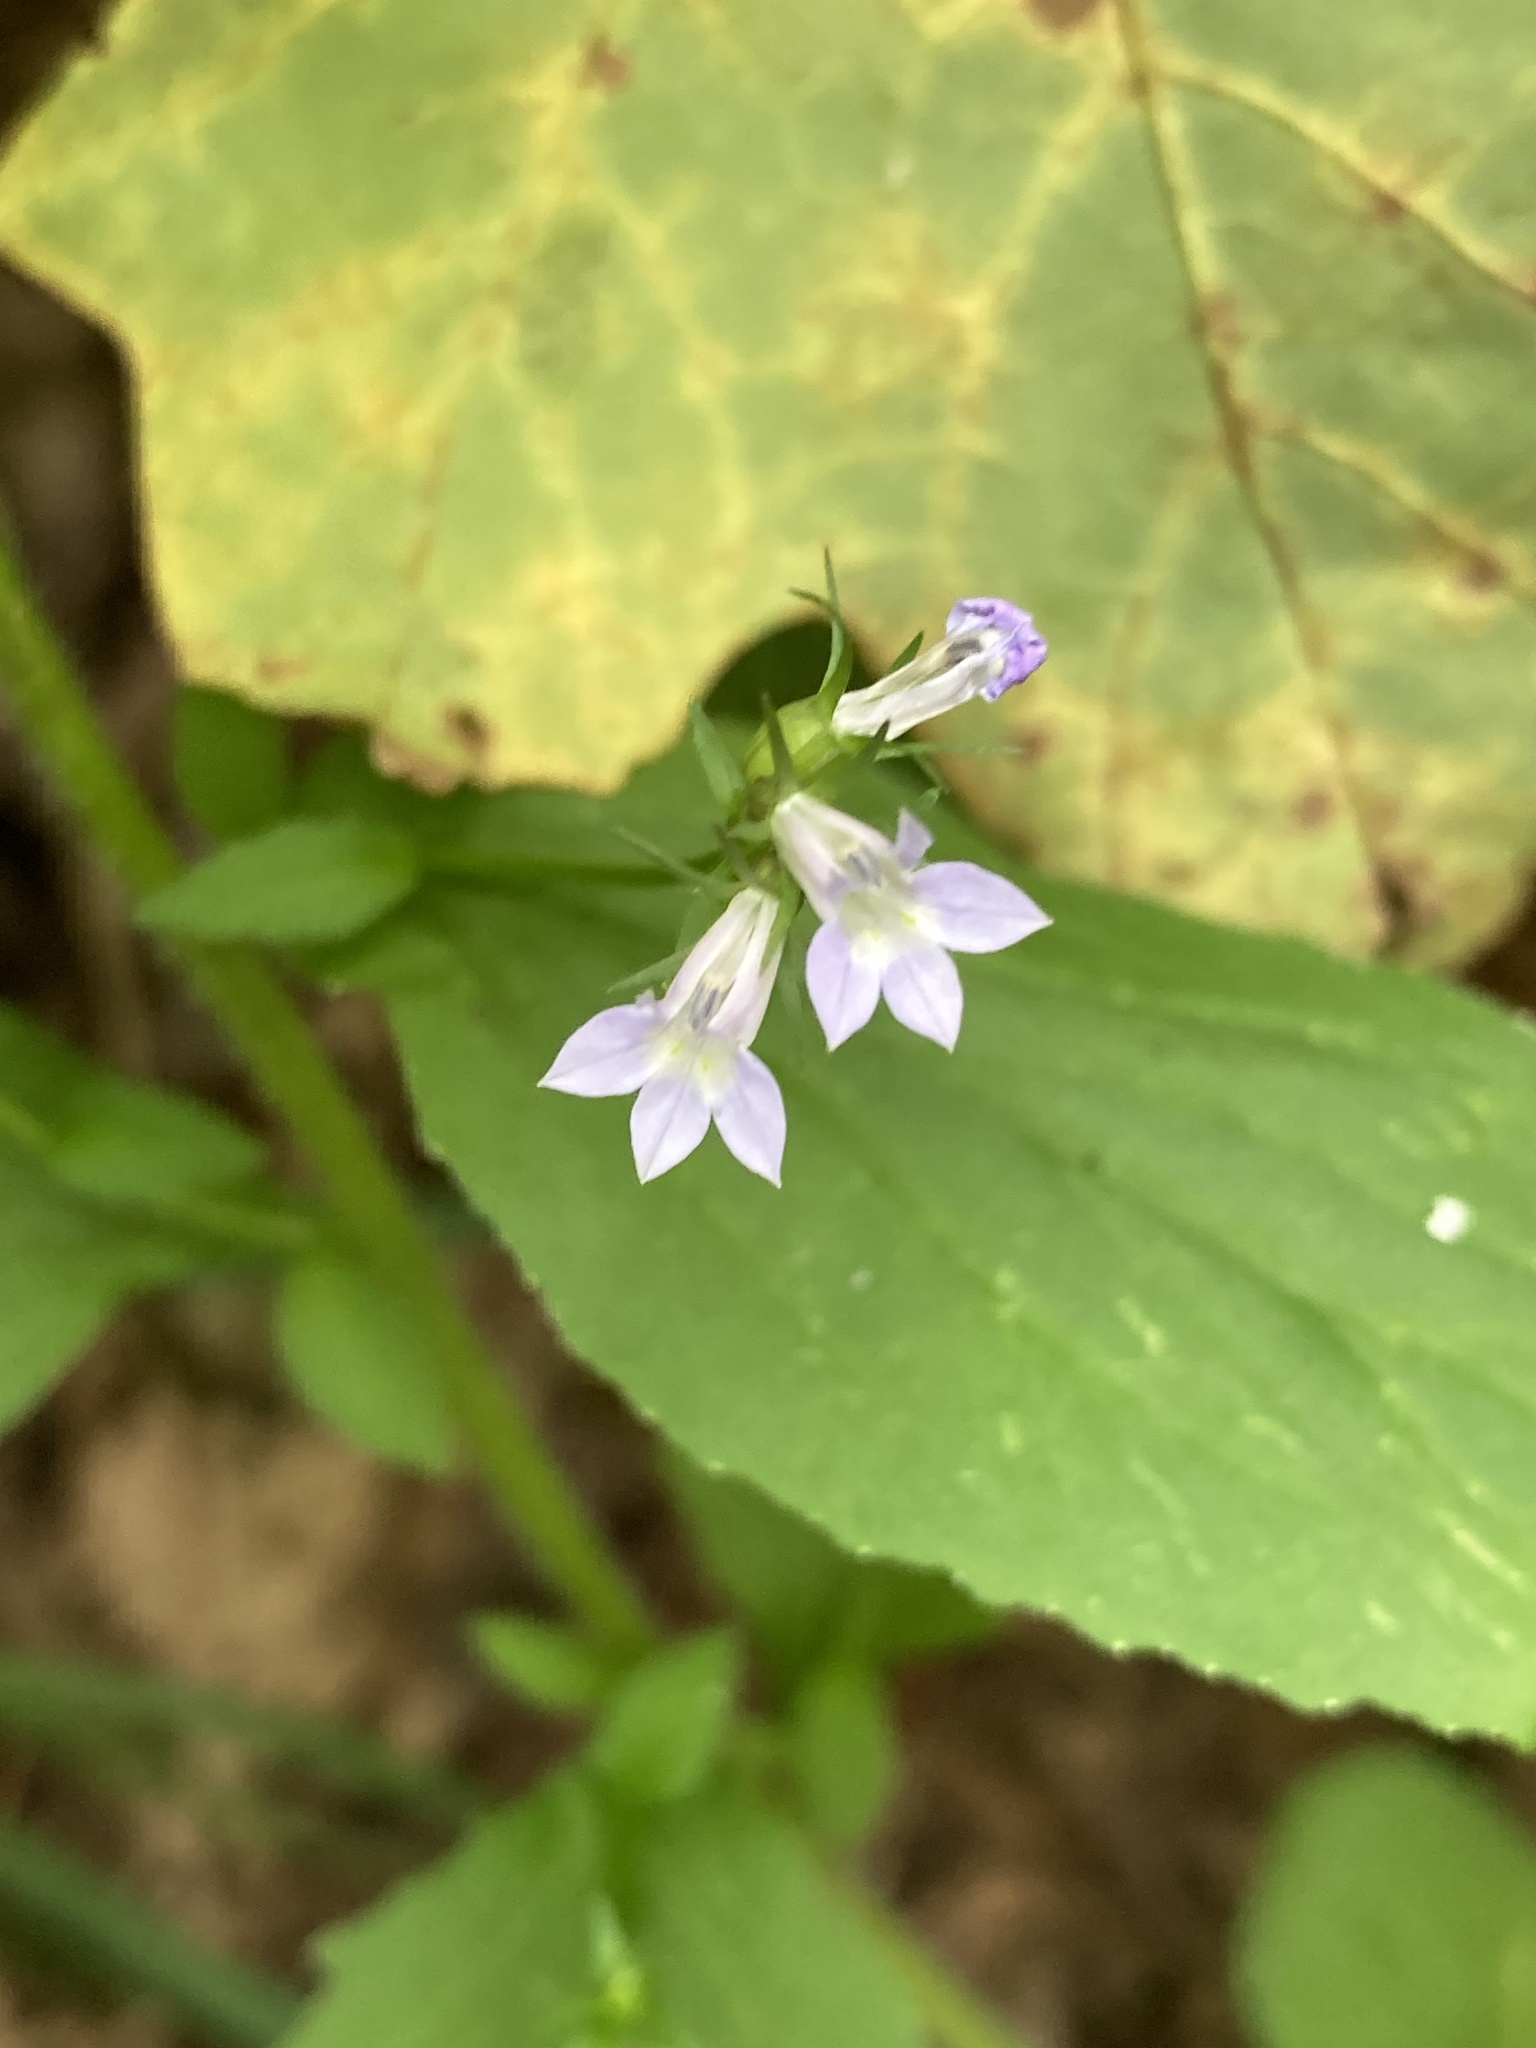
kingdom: Plantae
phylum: Tracheophyta
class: Magnoliopsida
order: Asterales
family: Campanulaceae
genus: Lobelia
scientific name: Lobelia inflata
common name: Indian tobacco
